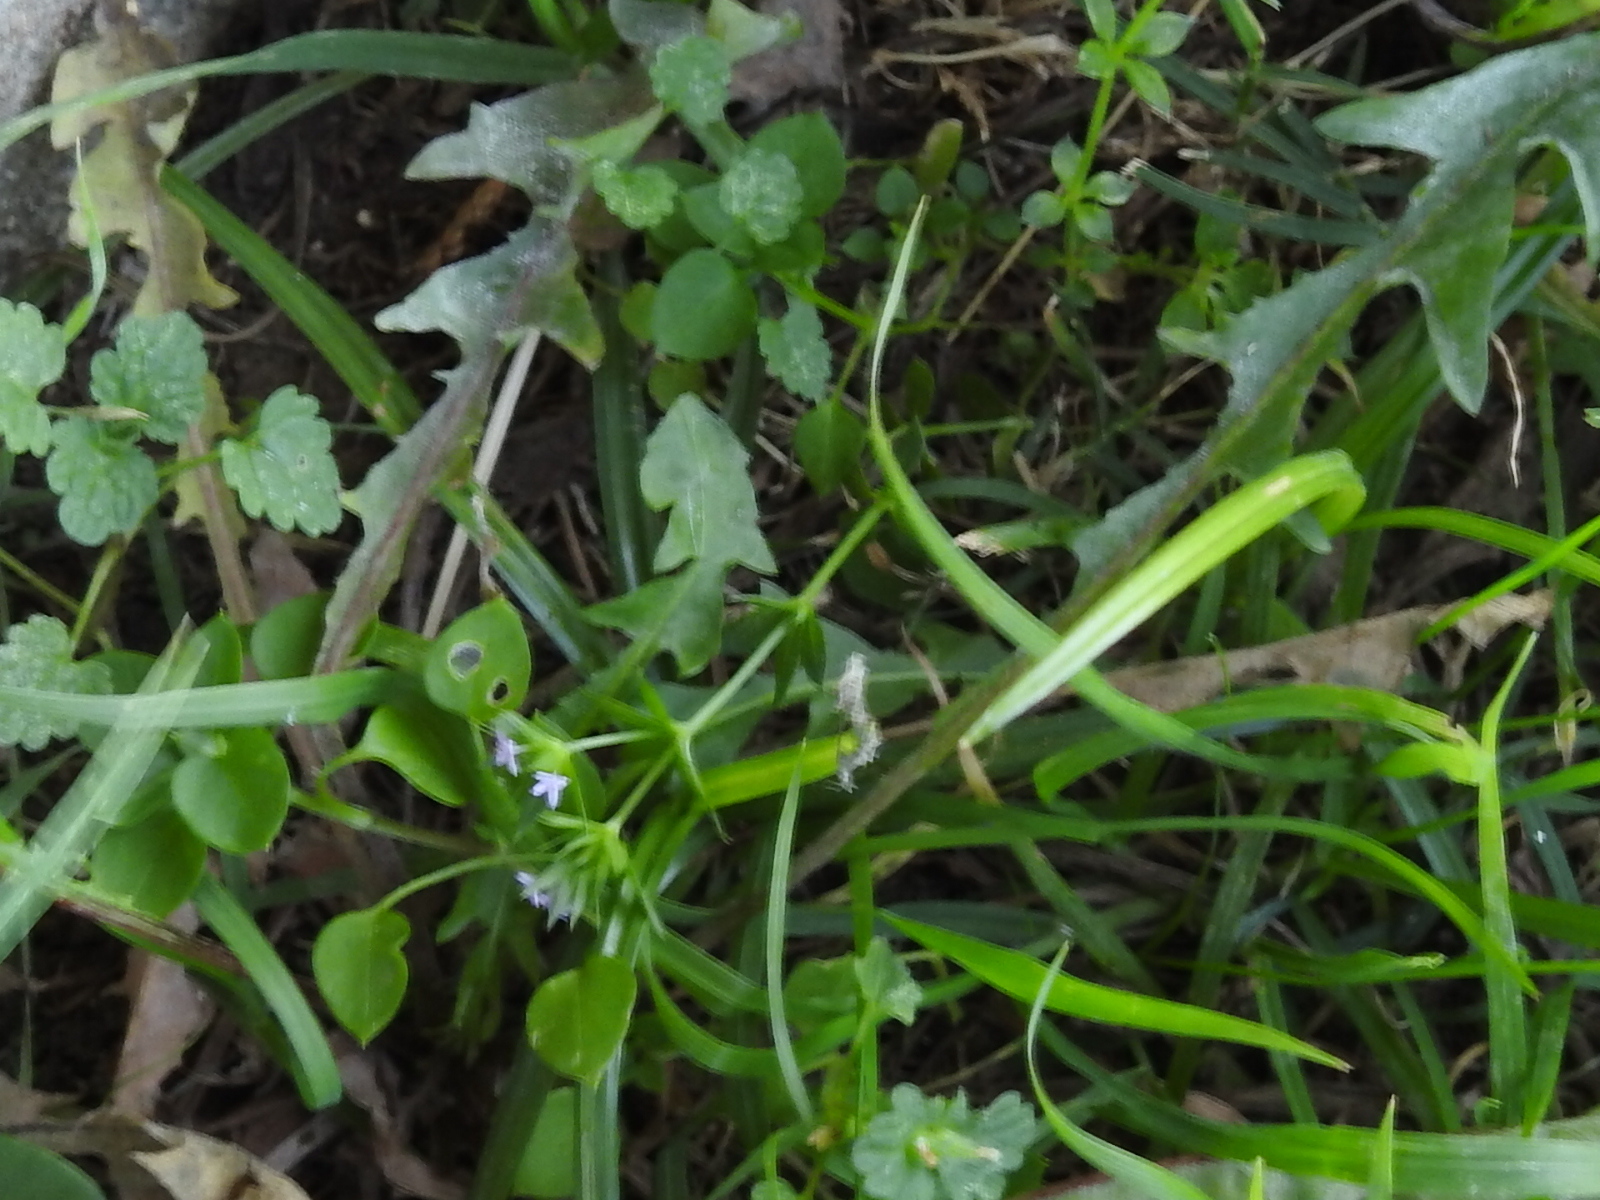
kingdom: Plantae
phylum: Tracheophyta
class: Magnoliopsida
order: Gentianales
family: Rubiaceae
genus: Sherardia
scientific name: Sherardia arvensis
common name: Field madder
